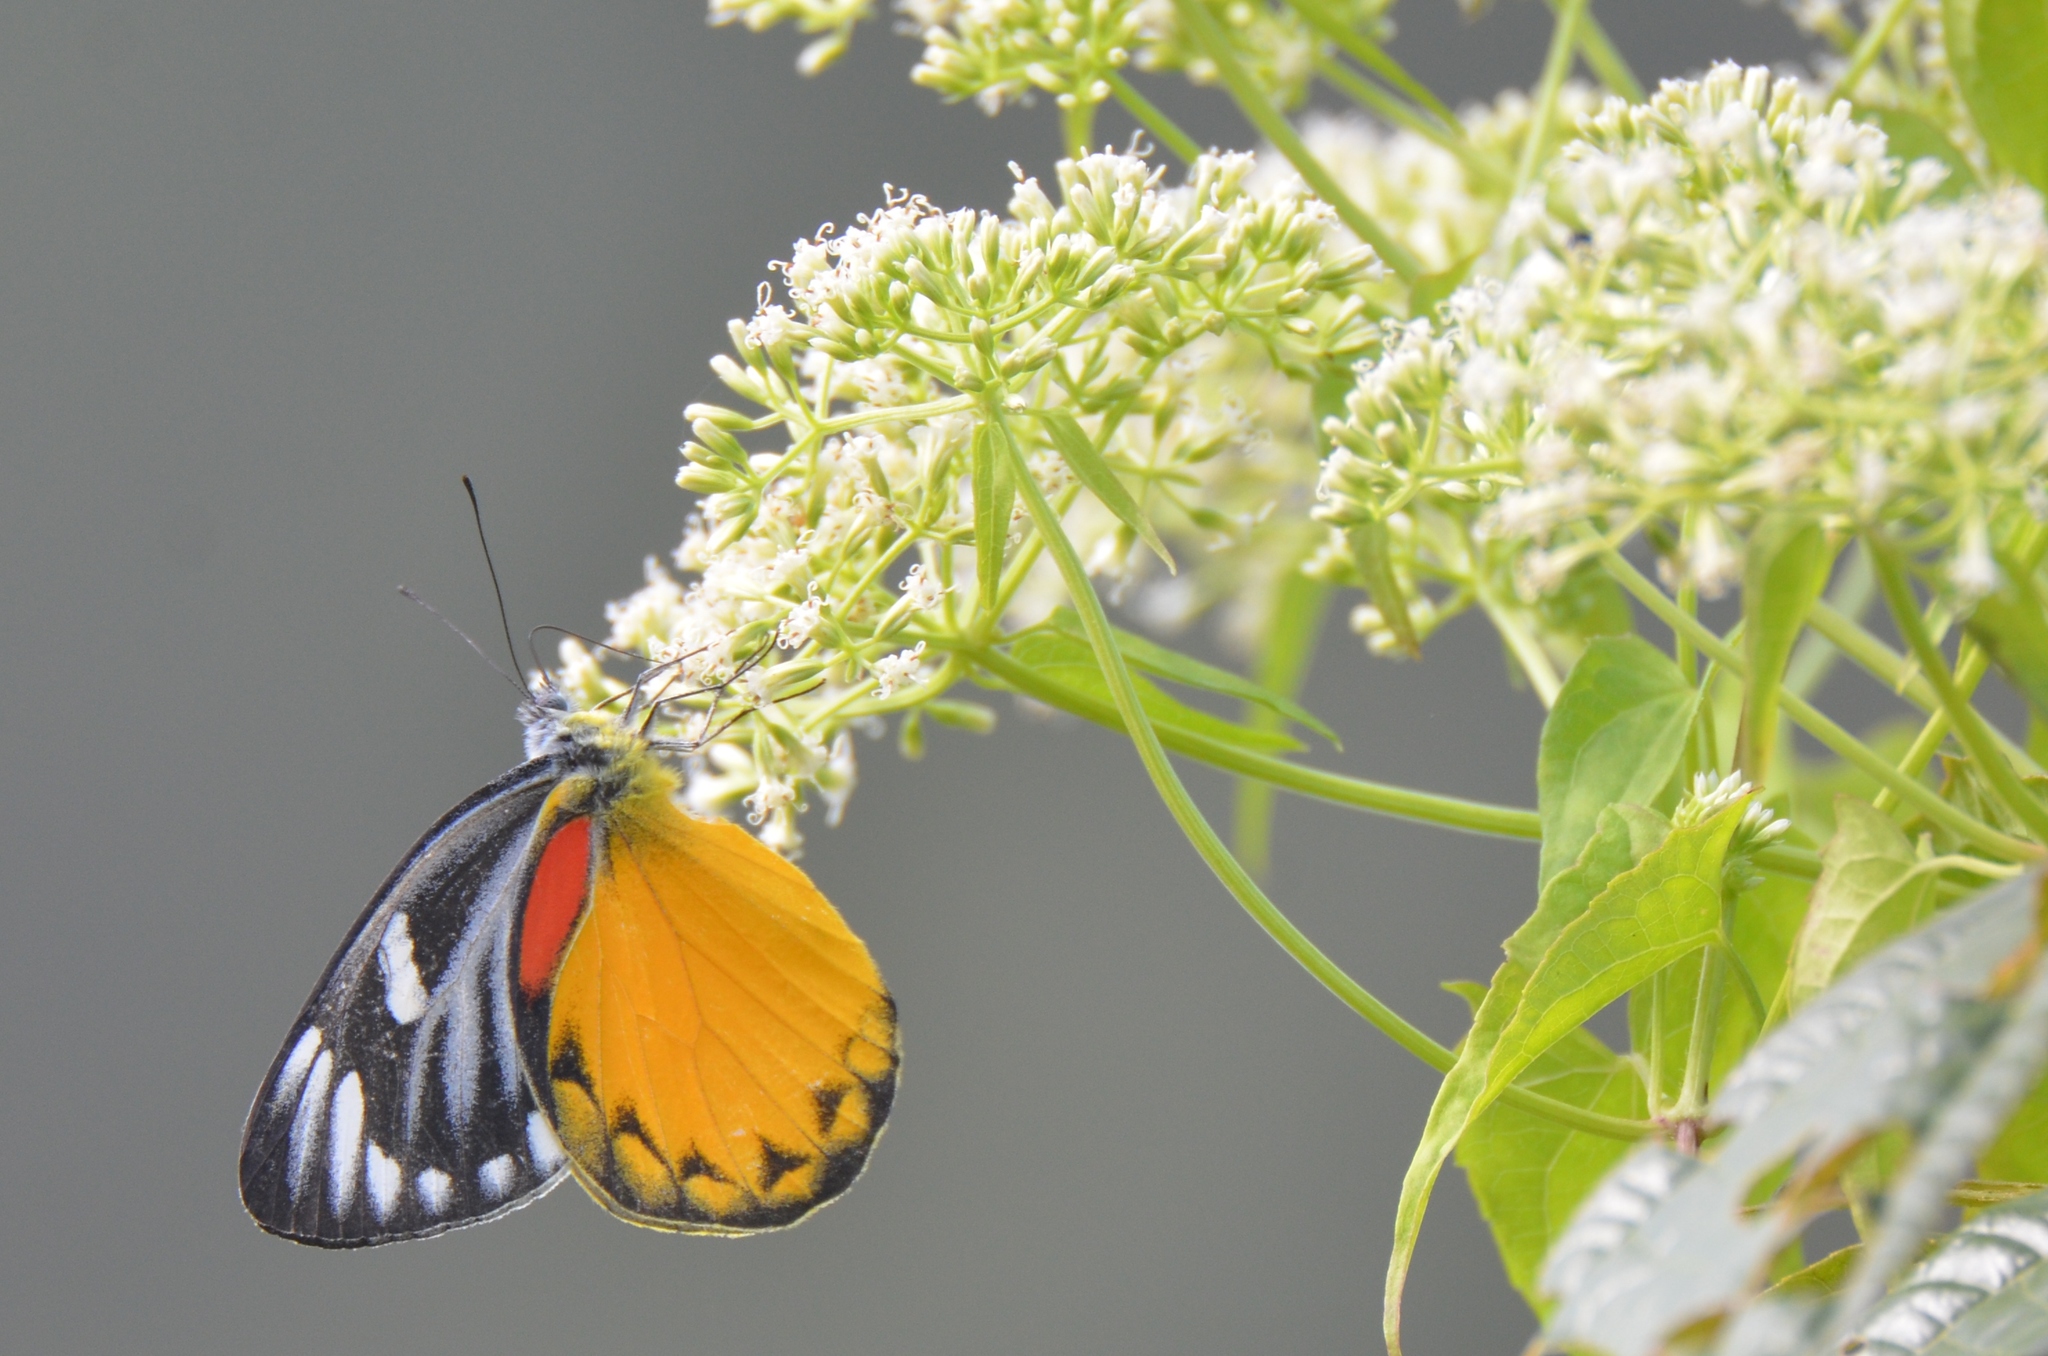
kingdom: Animalia
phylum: Arthropoda
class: Insecta
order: Lepidoptera
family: Pieridae
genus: Delias
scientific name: Delias descombesi
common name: Red-spot jezebel
